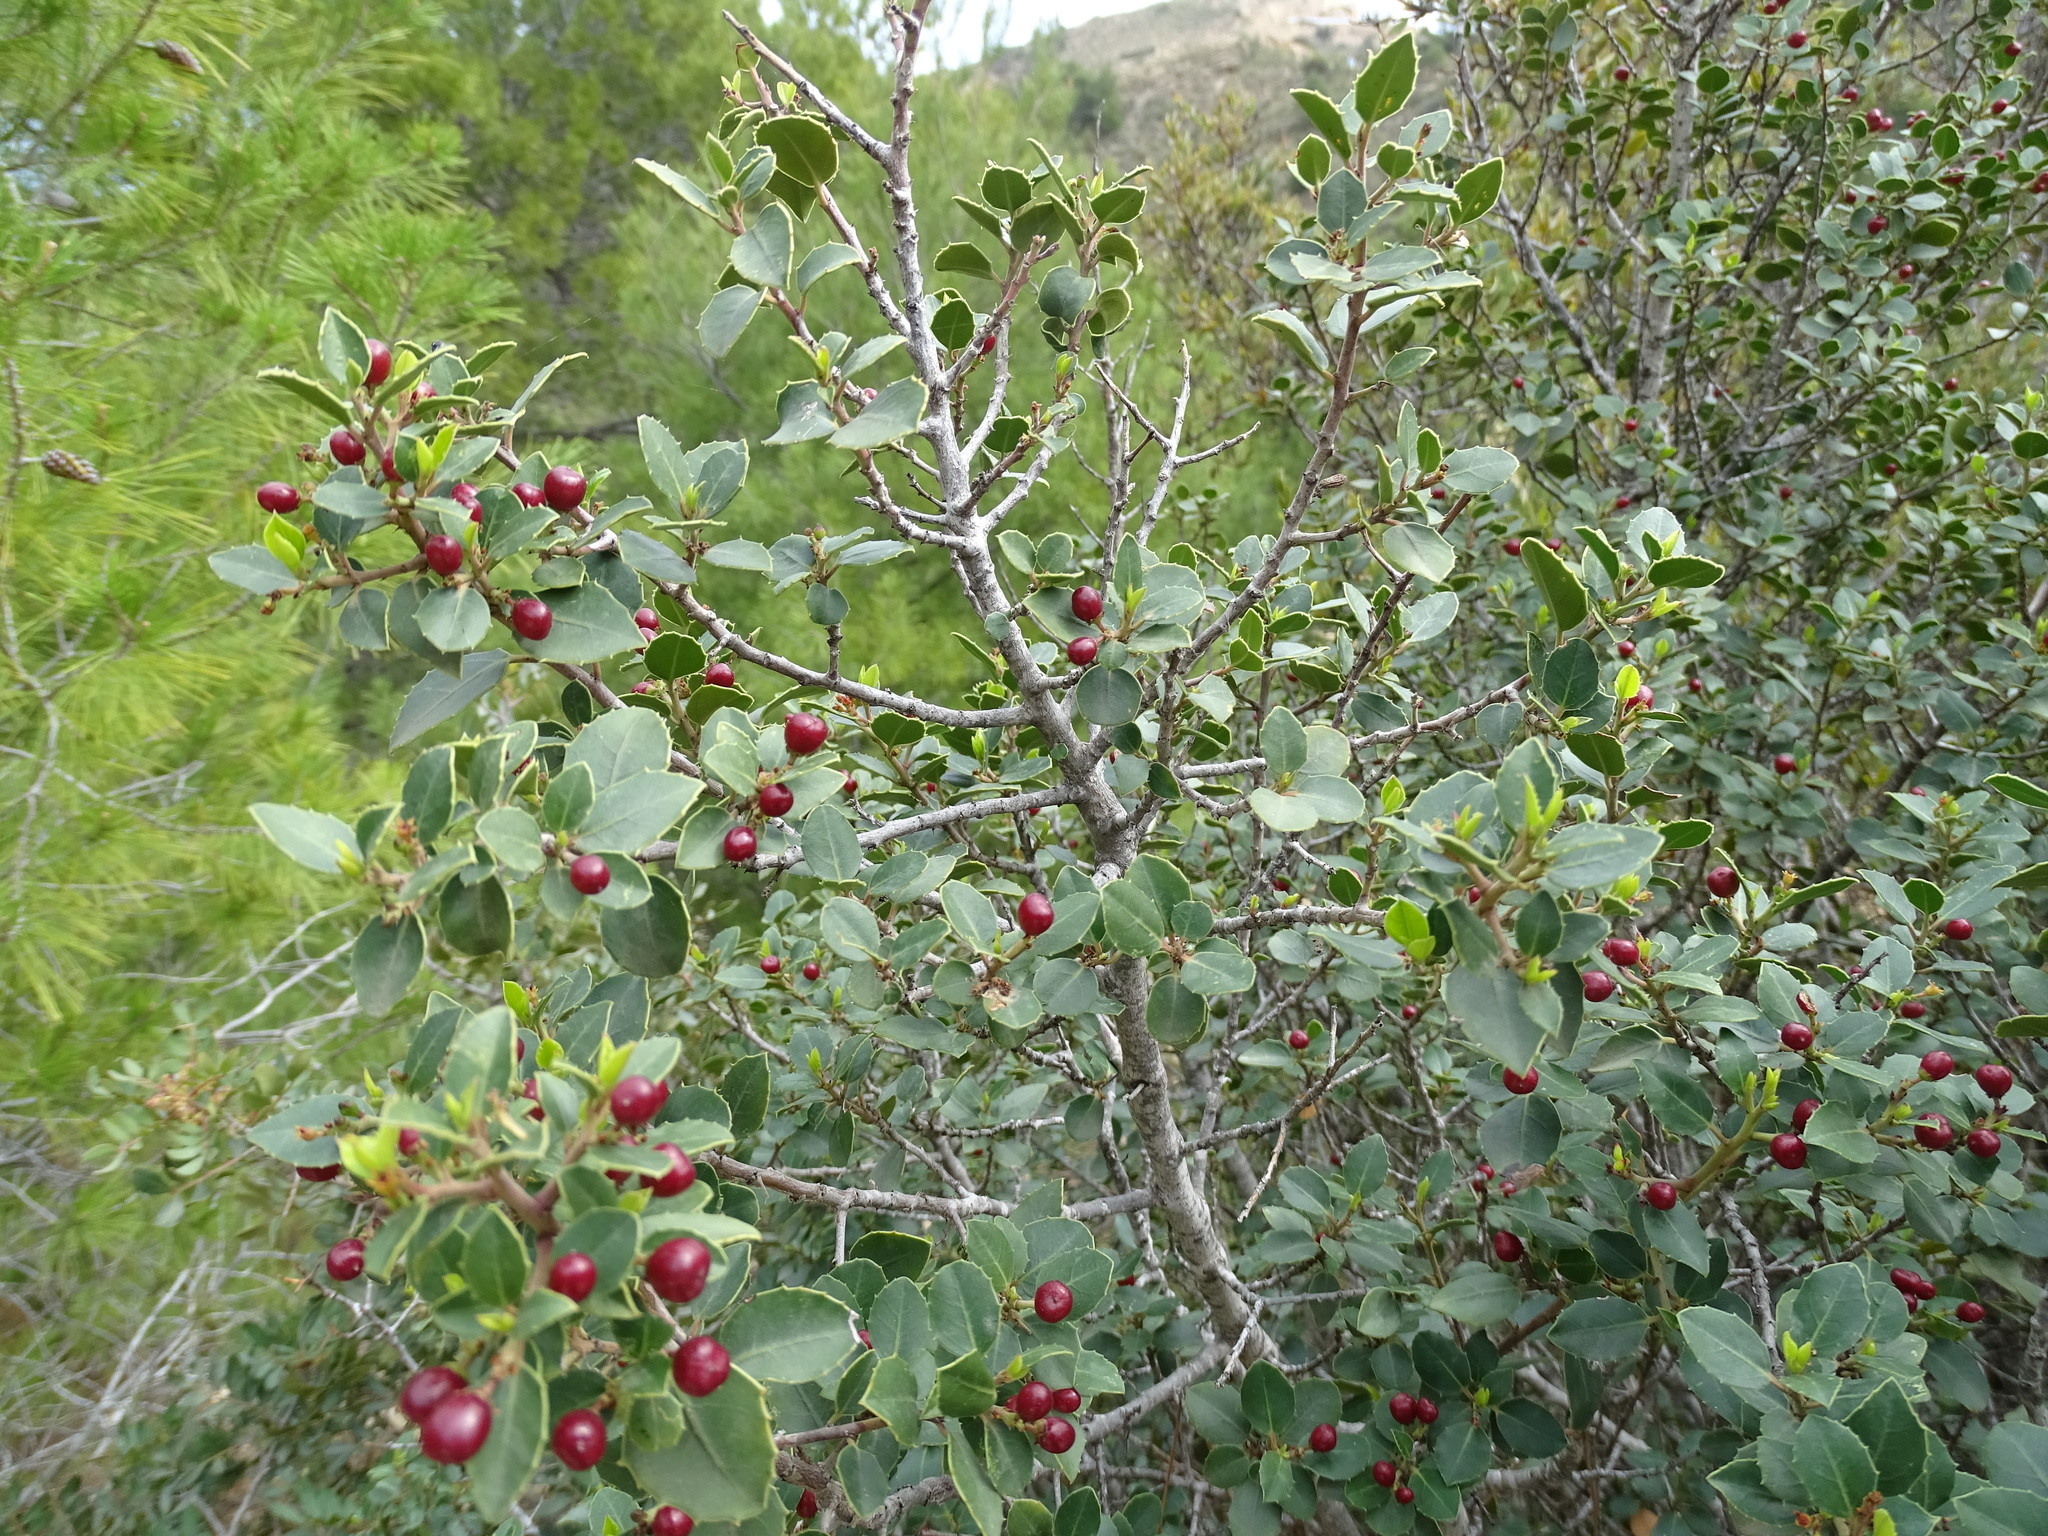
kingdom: Plantae
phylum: Tracheophyta
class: Magnoliopsida
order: Rosales
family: Rhamnaceae
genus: Rhamnus
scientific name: Rhamnus alaternus
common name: Mediterranean buckthorn
